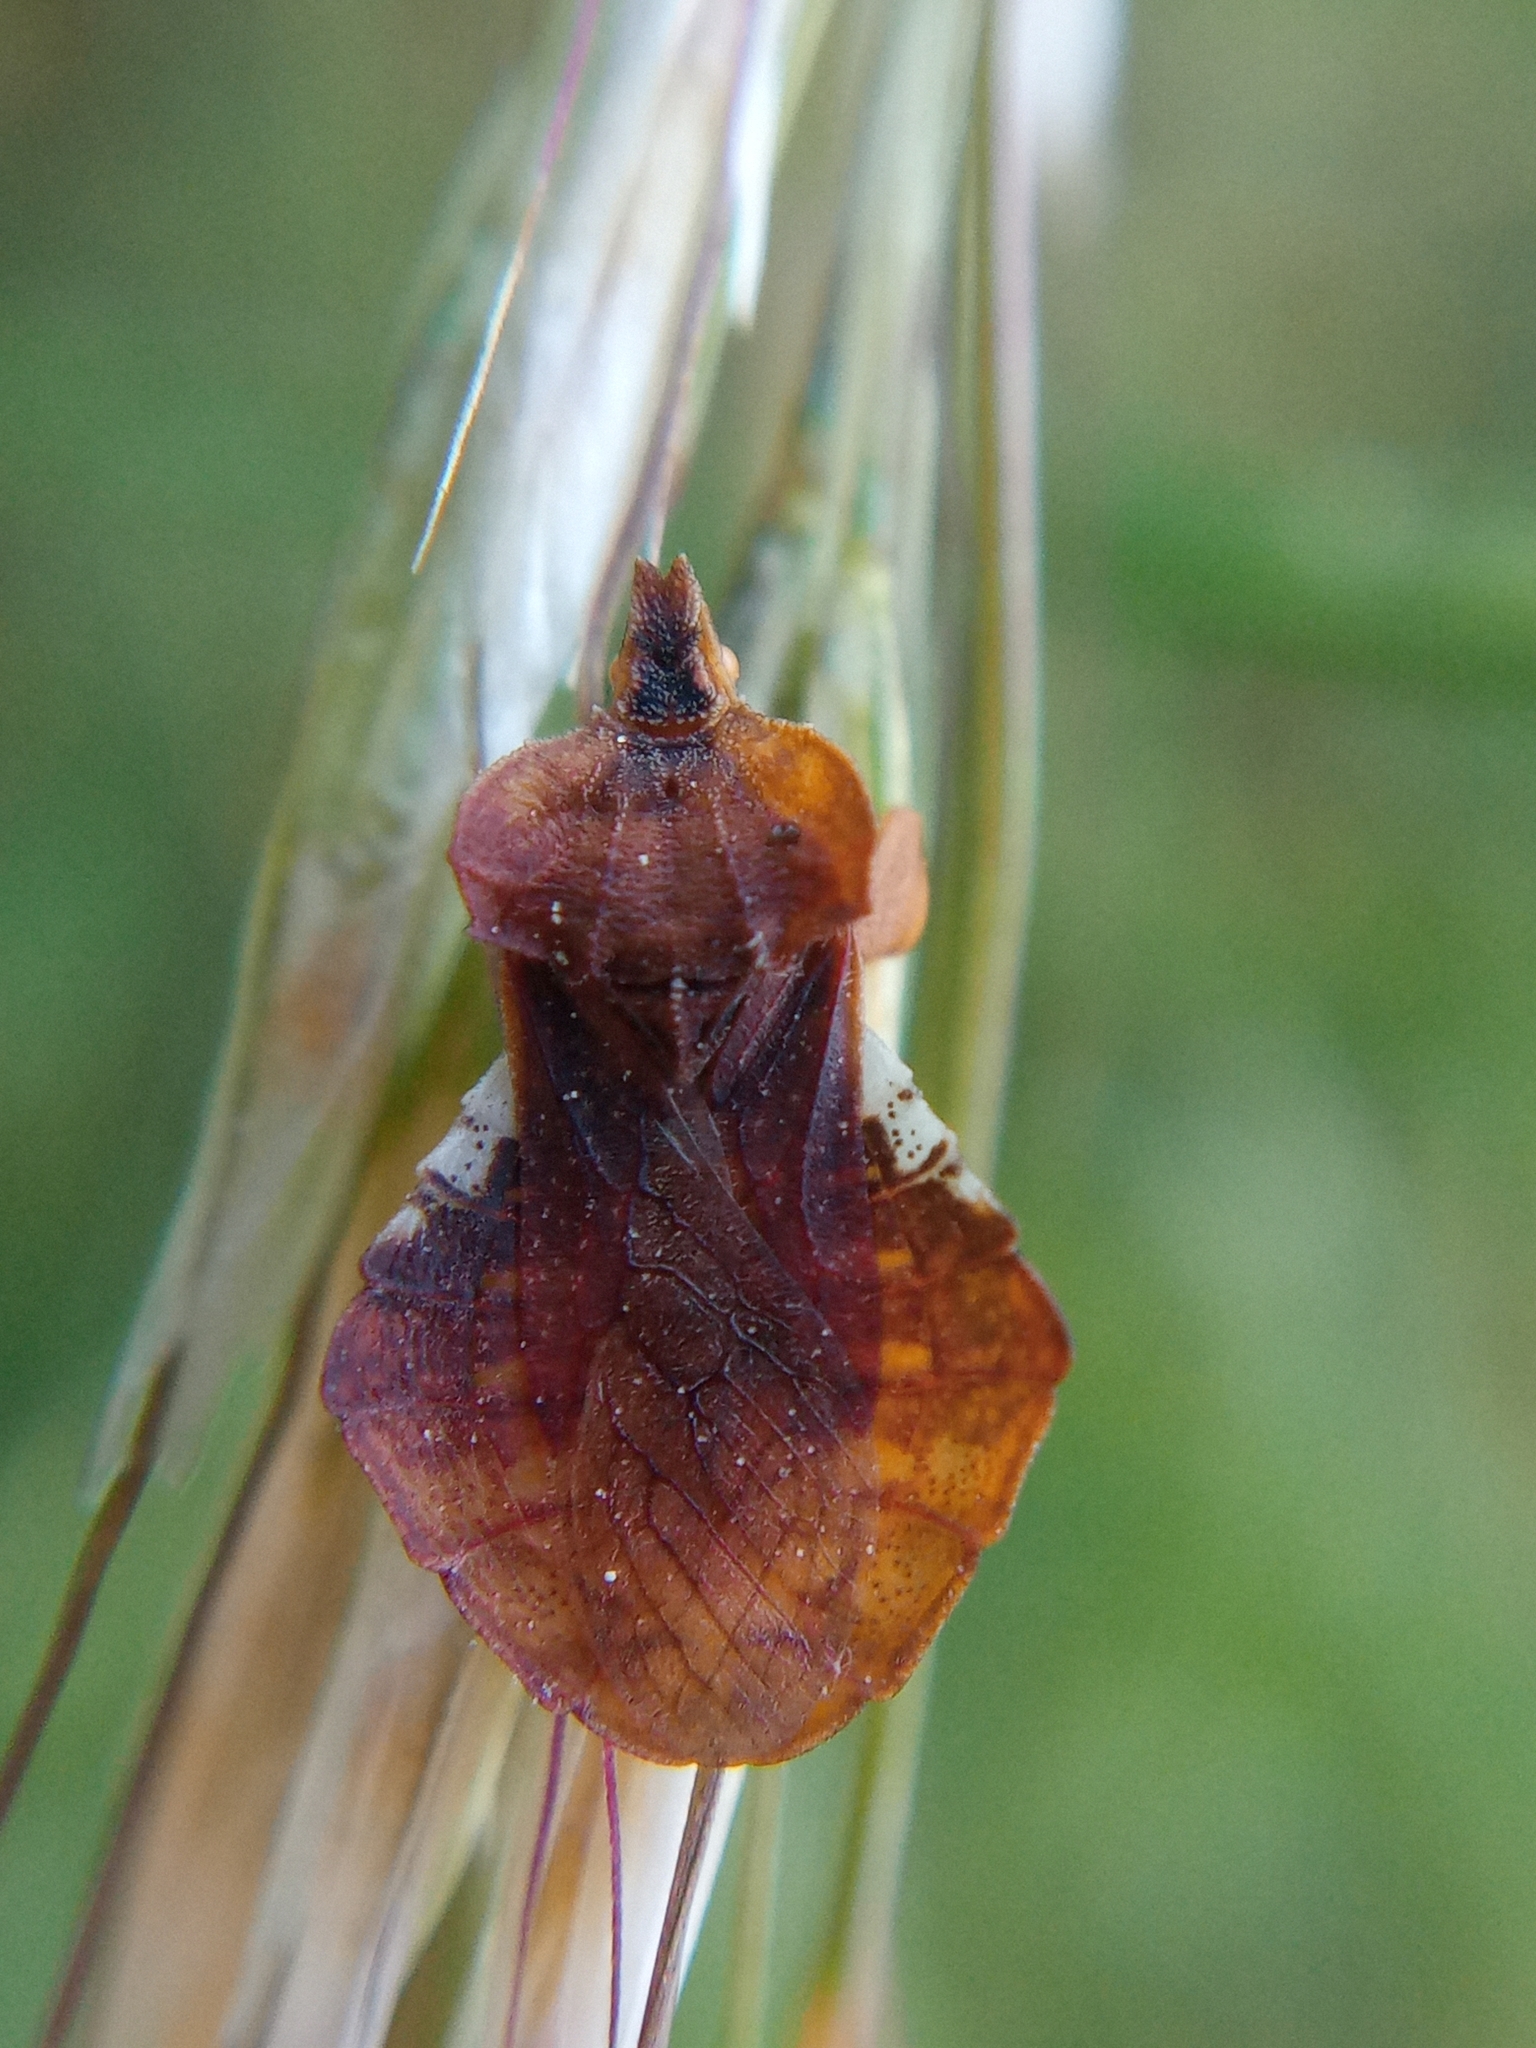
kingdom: Animalia
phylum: Arthropoda
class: Insecta
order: Hemiptera
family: Reduviidae
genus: Phymata
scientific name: Phymata crassipes
